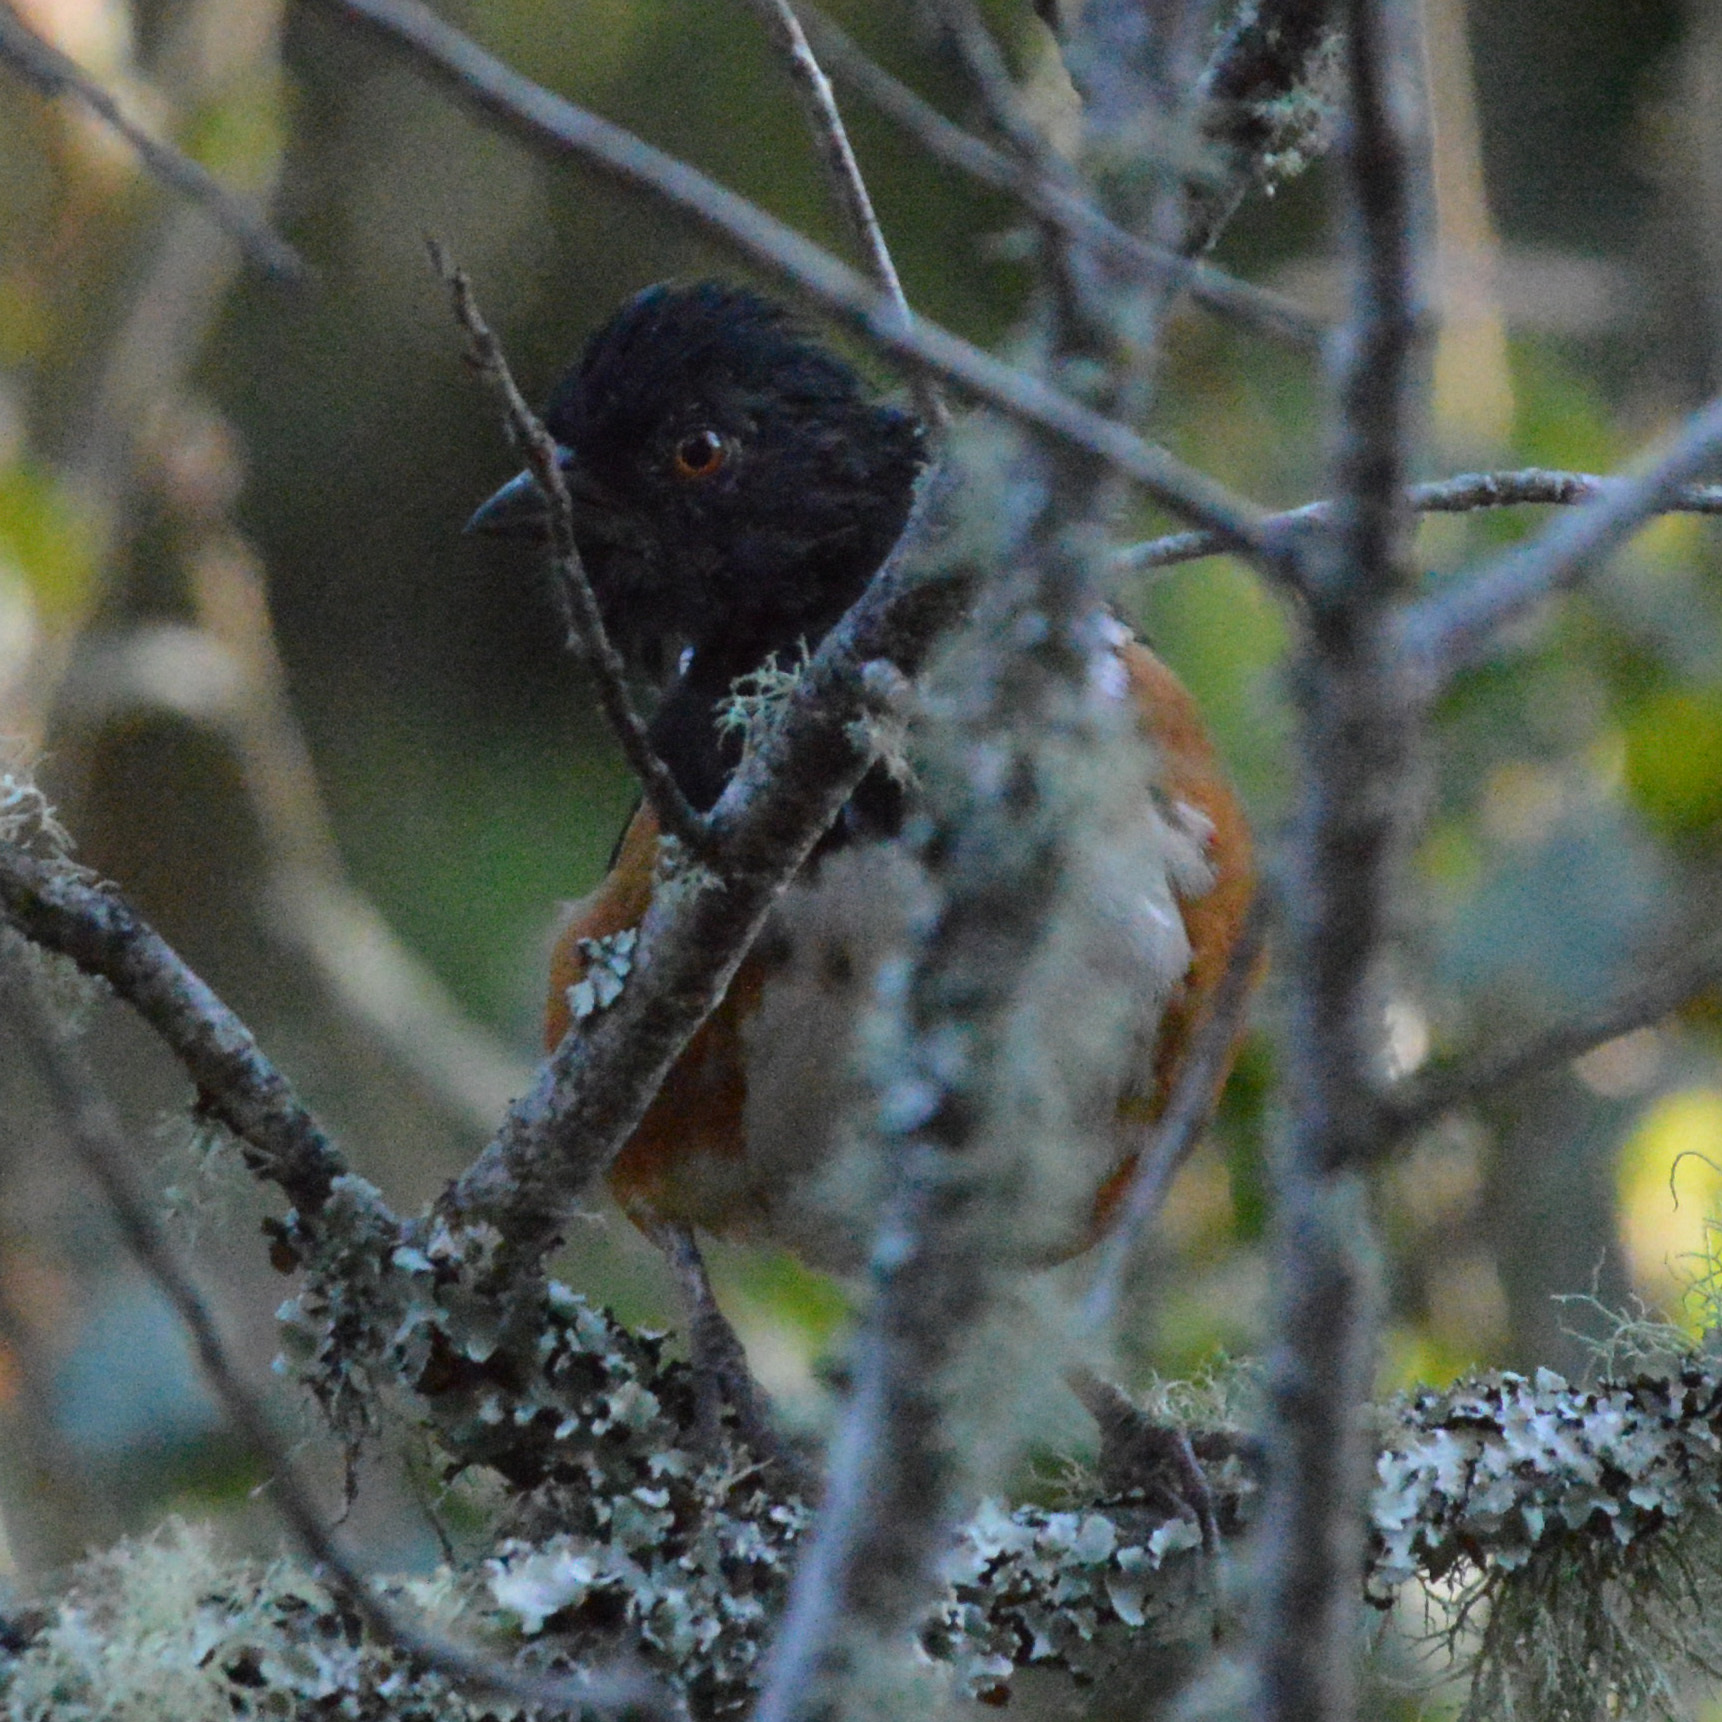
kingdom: Animalia
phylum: Chordata
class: Aves
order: Passeriformes
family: Passerellidae
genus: Pipilo
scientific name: Pipilo maculatus
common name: Spotted towhee
